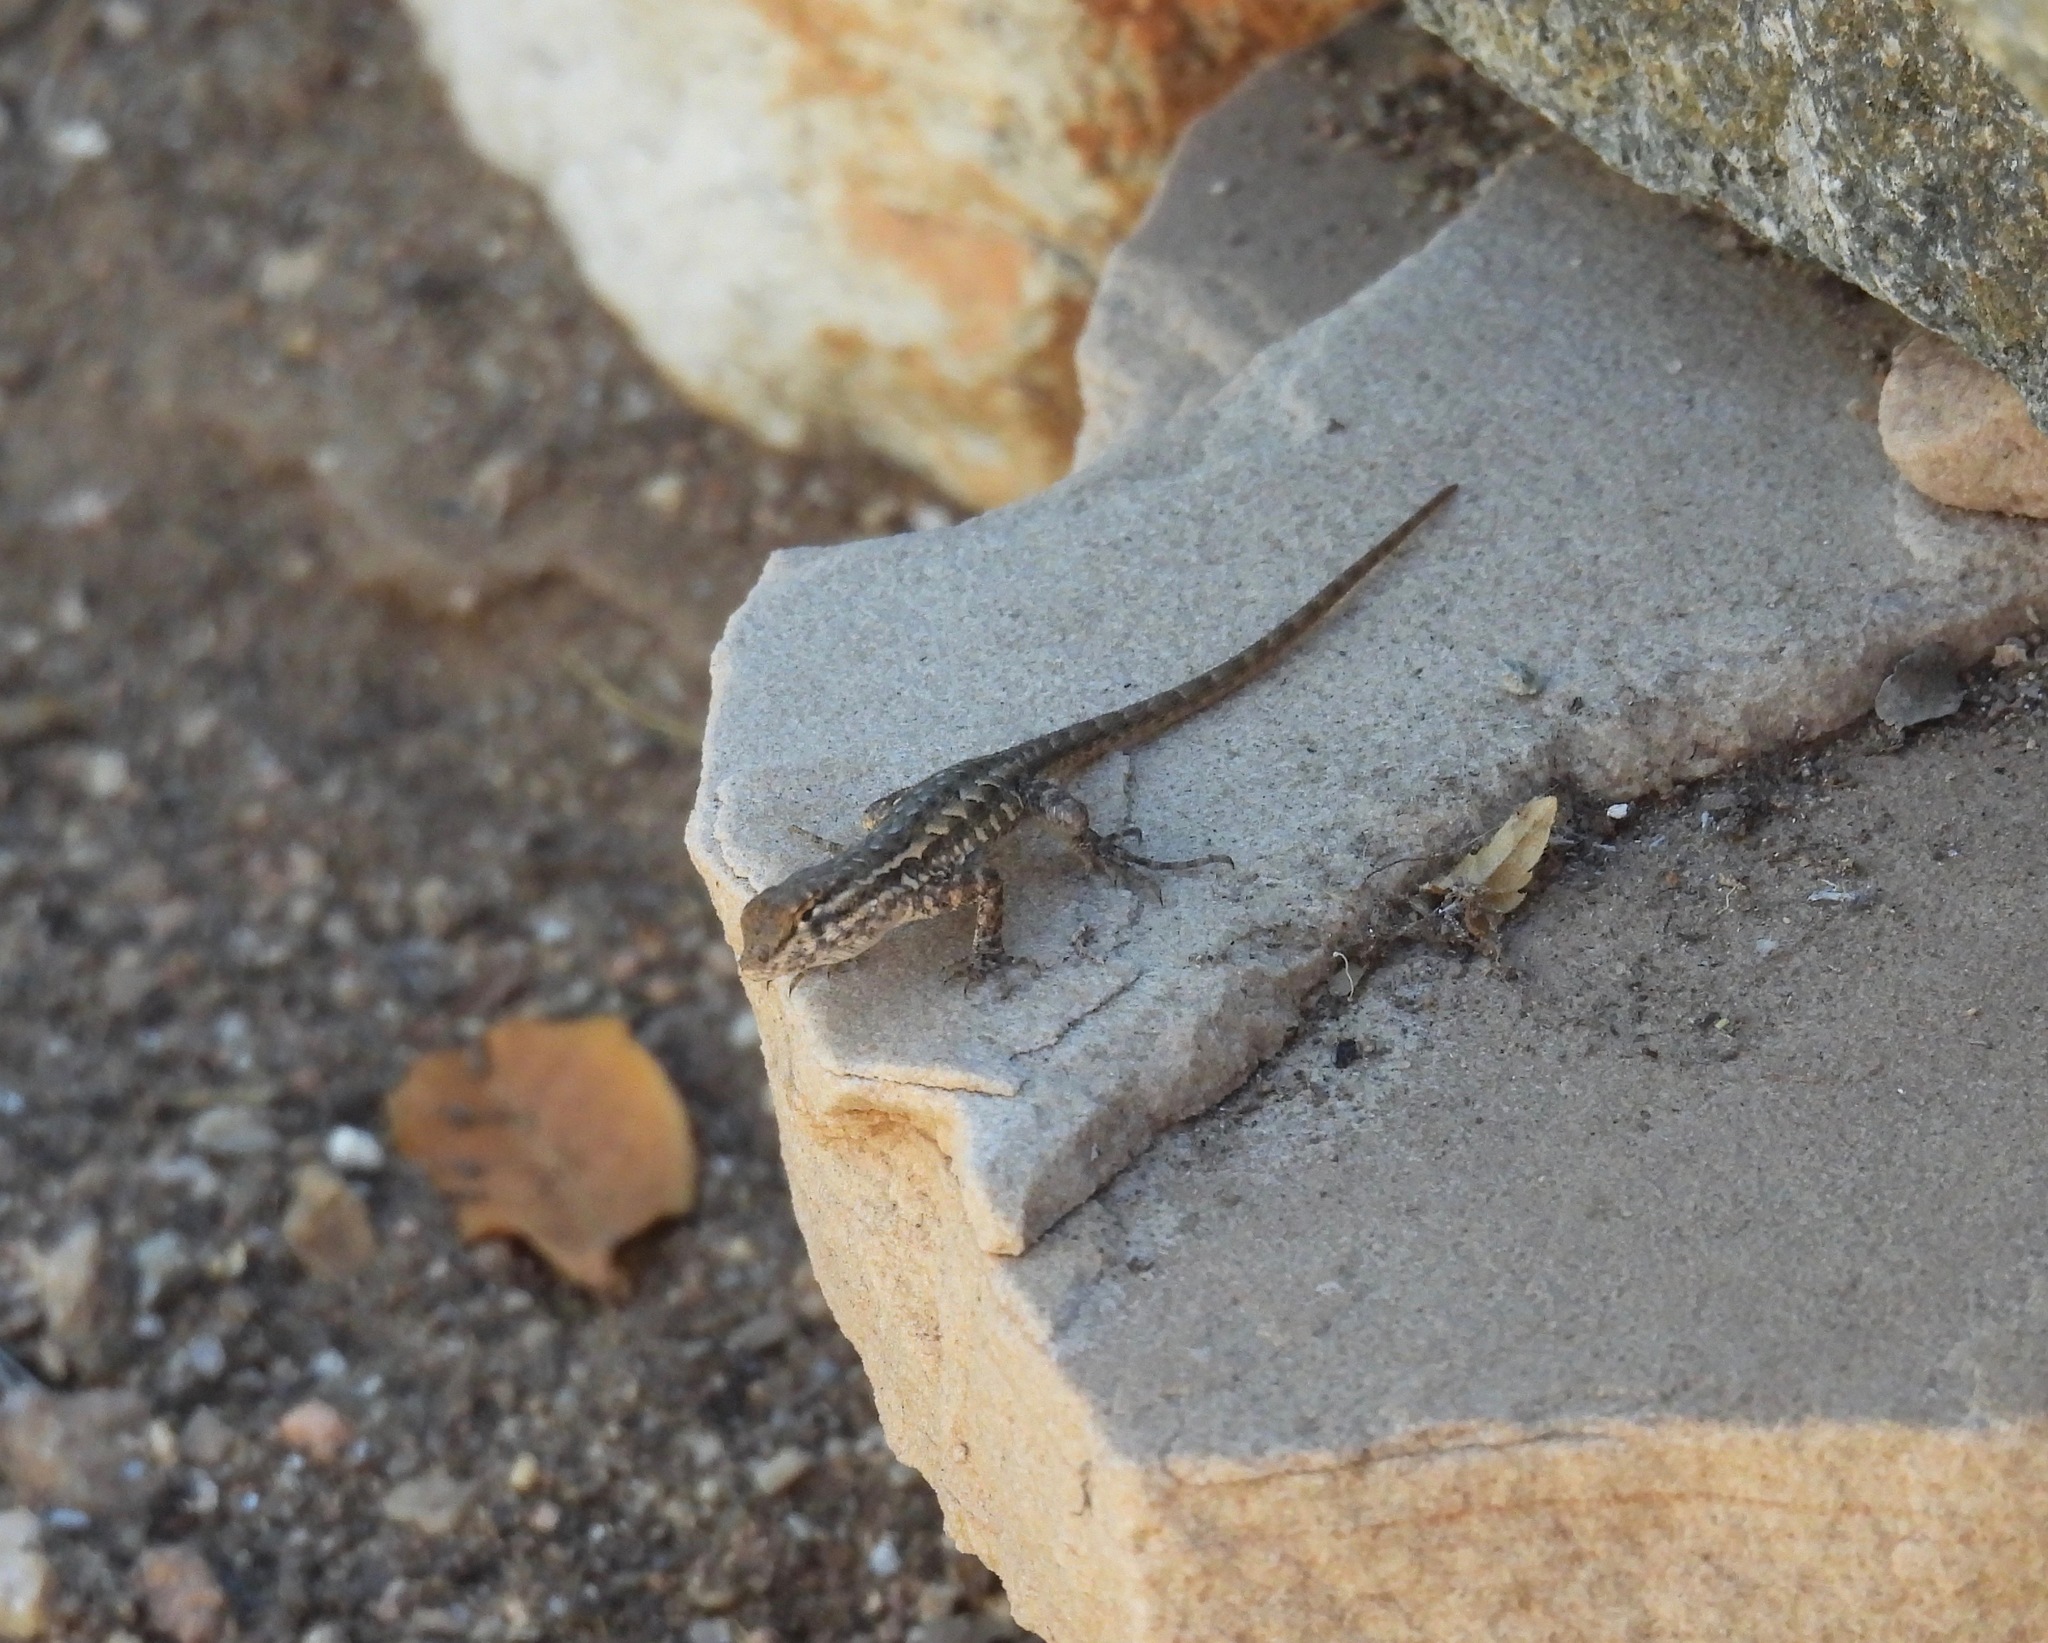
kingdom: Animalia
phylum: Chordata
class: Squamata
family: Phrynosomatidae
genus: Uta
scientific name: Uta stansburiana
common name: Side-blotched lizard
